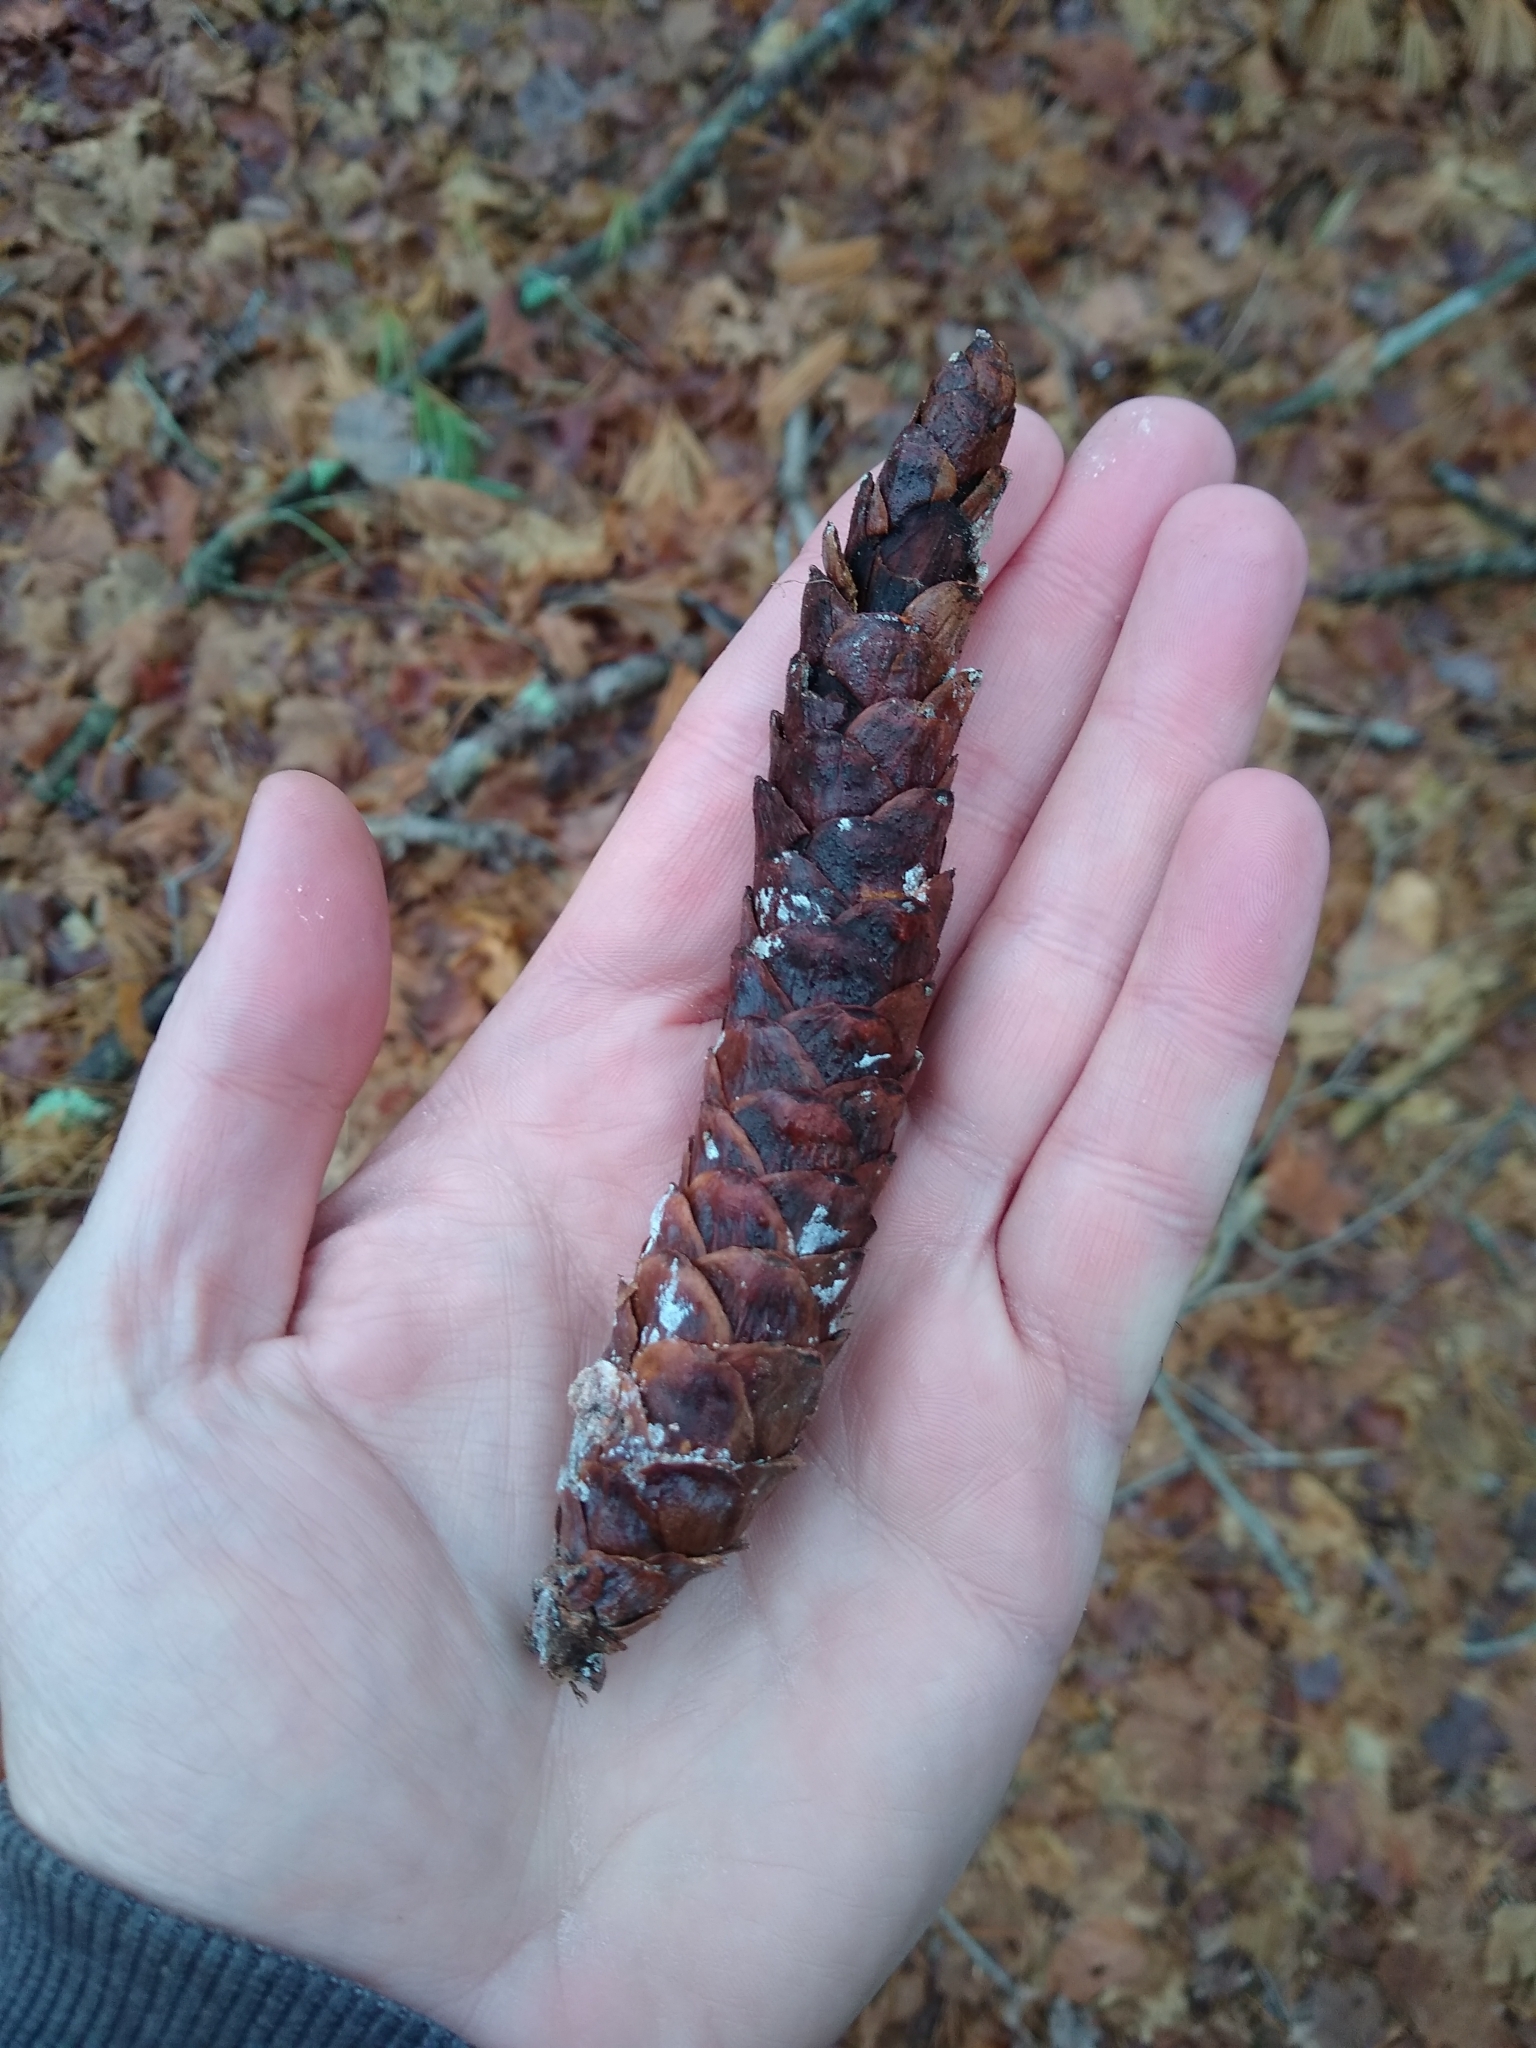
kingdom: Plantae
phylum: Tracheophyta
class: Pinopsida
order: Pinales
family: Pinaceae
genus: Pinus
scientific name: Pinus strobus
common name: Weymouth pine
